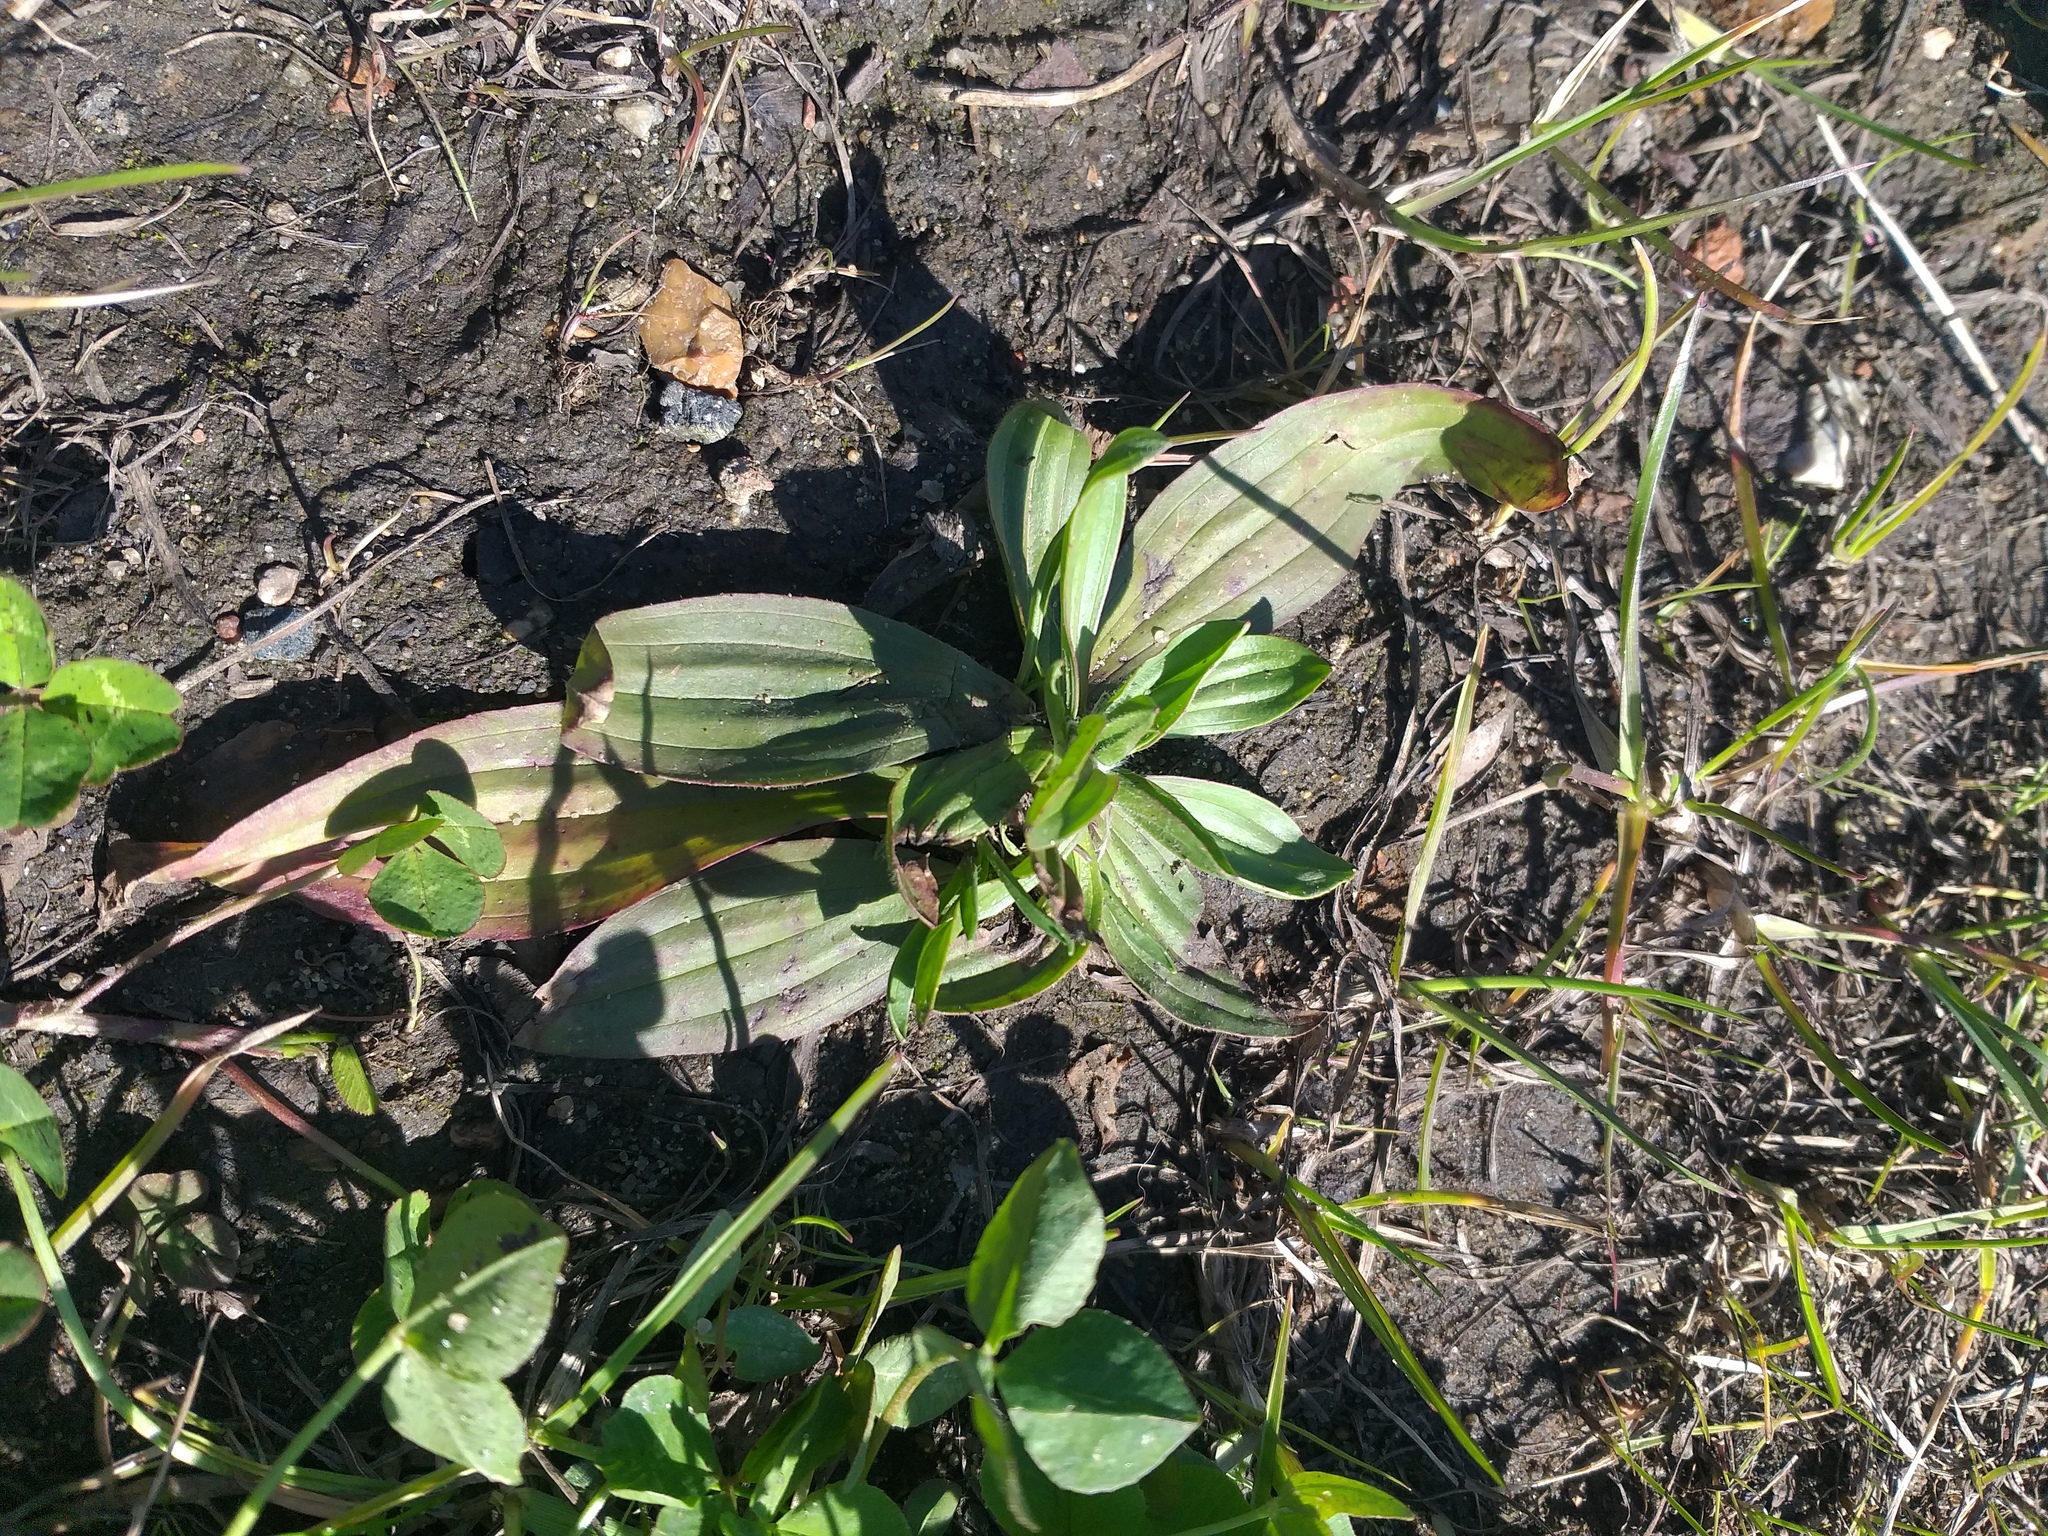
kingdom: Plantae
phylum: Tracheophyta
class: Magnoliopsida
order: Lamiales
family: Plantaginaceae
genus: Plantago
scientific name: Plantago lanceolata
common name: Ribwort plantain
